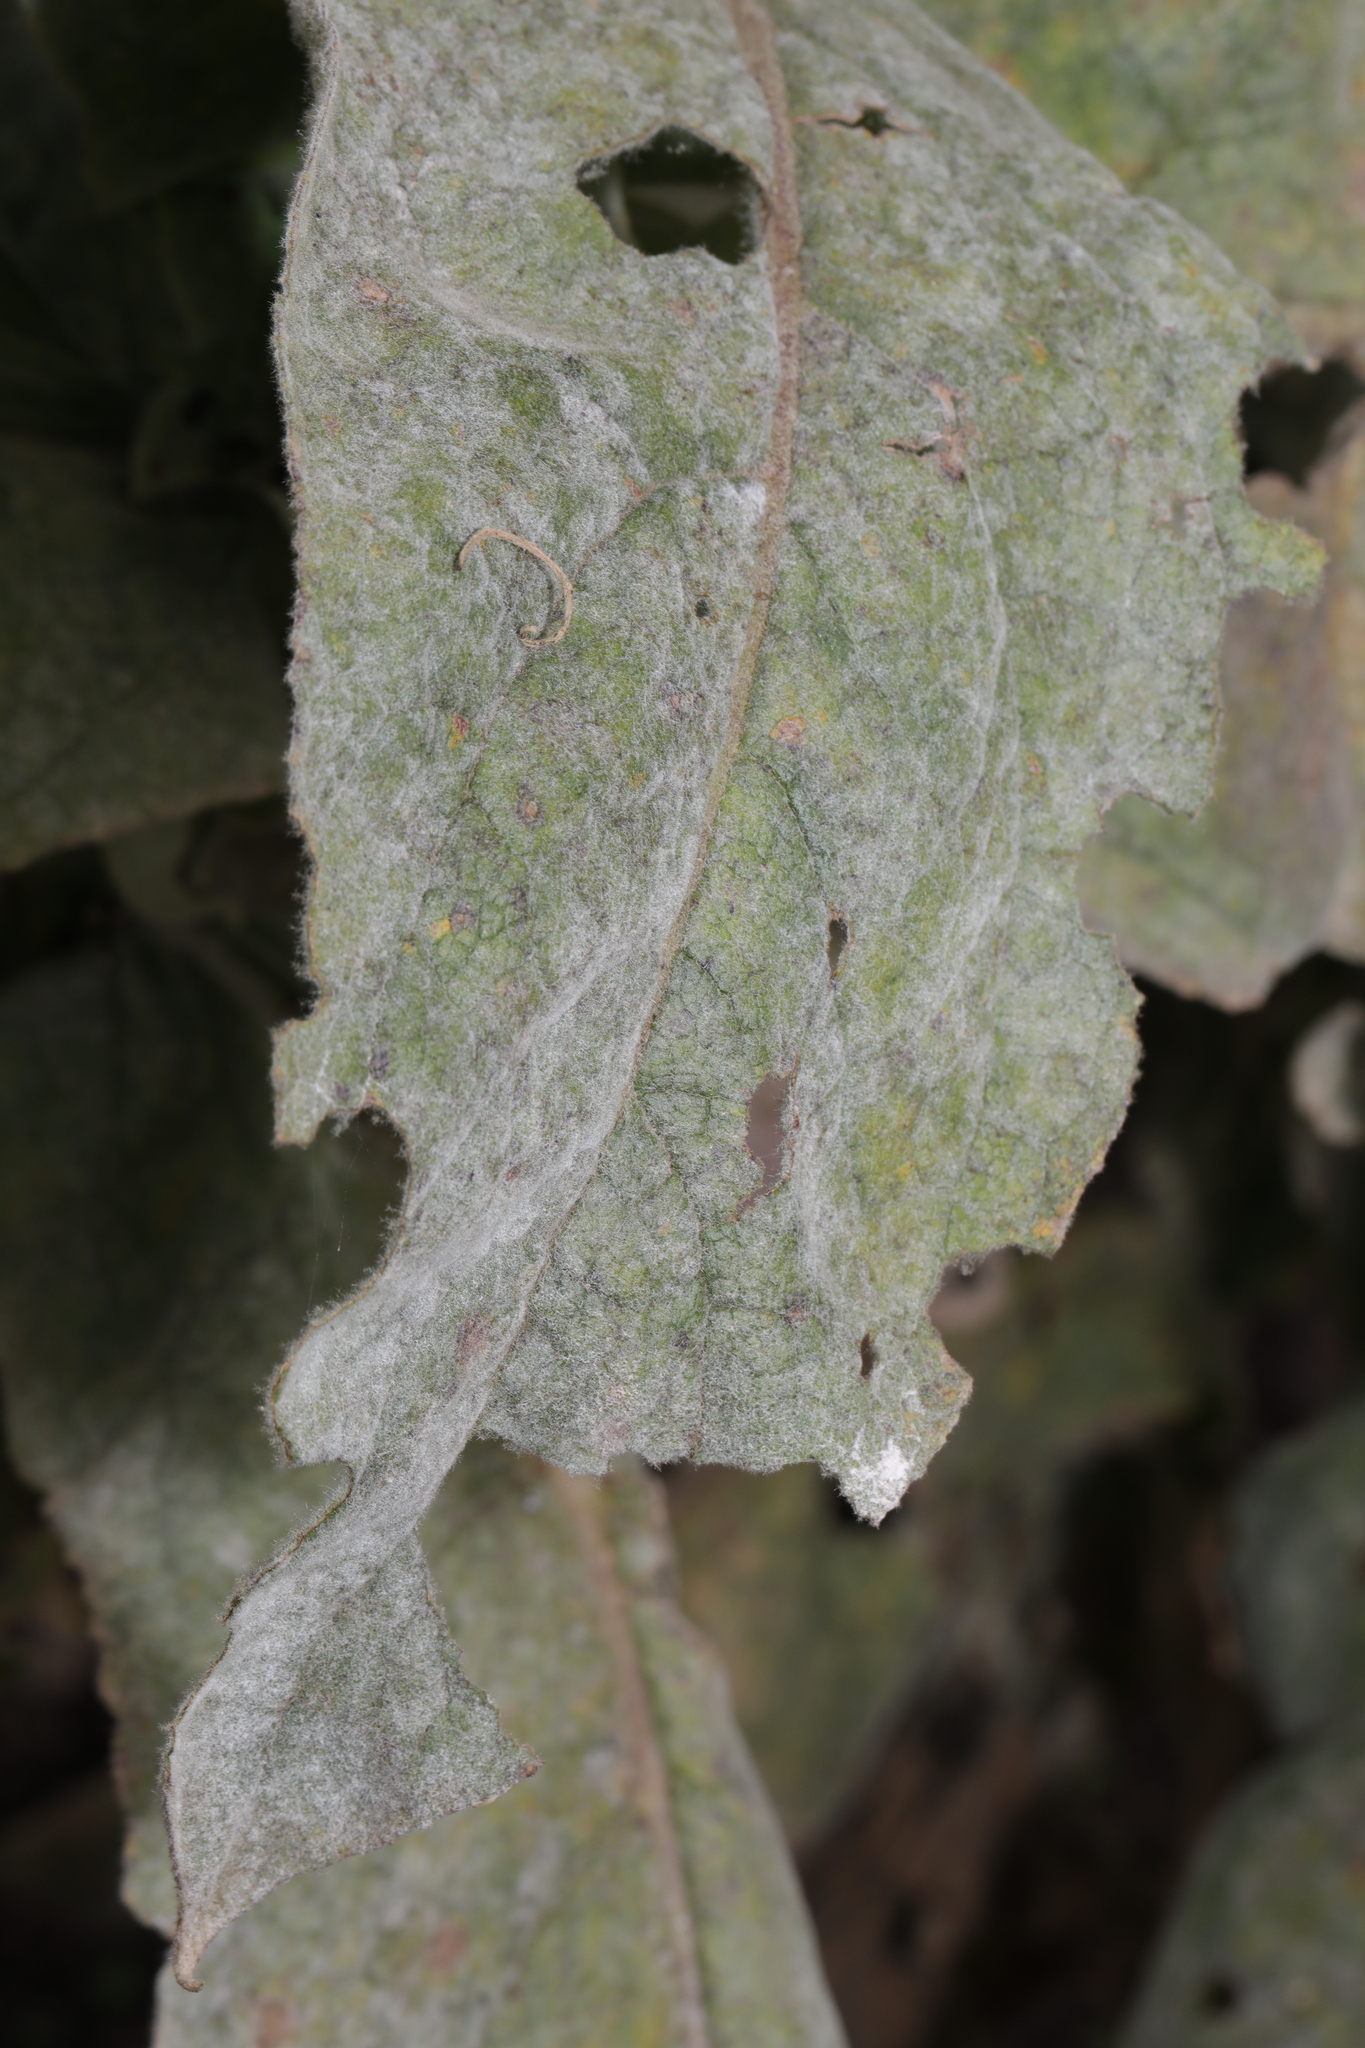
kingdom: Fungi
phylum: Ascomycota
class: Leotiomycetes
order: Helotiales
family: Erysiphaceae
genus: Golovinomyces
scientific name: Golovinomyces verbasci
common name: Powdery mildew
